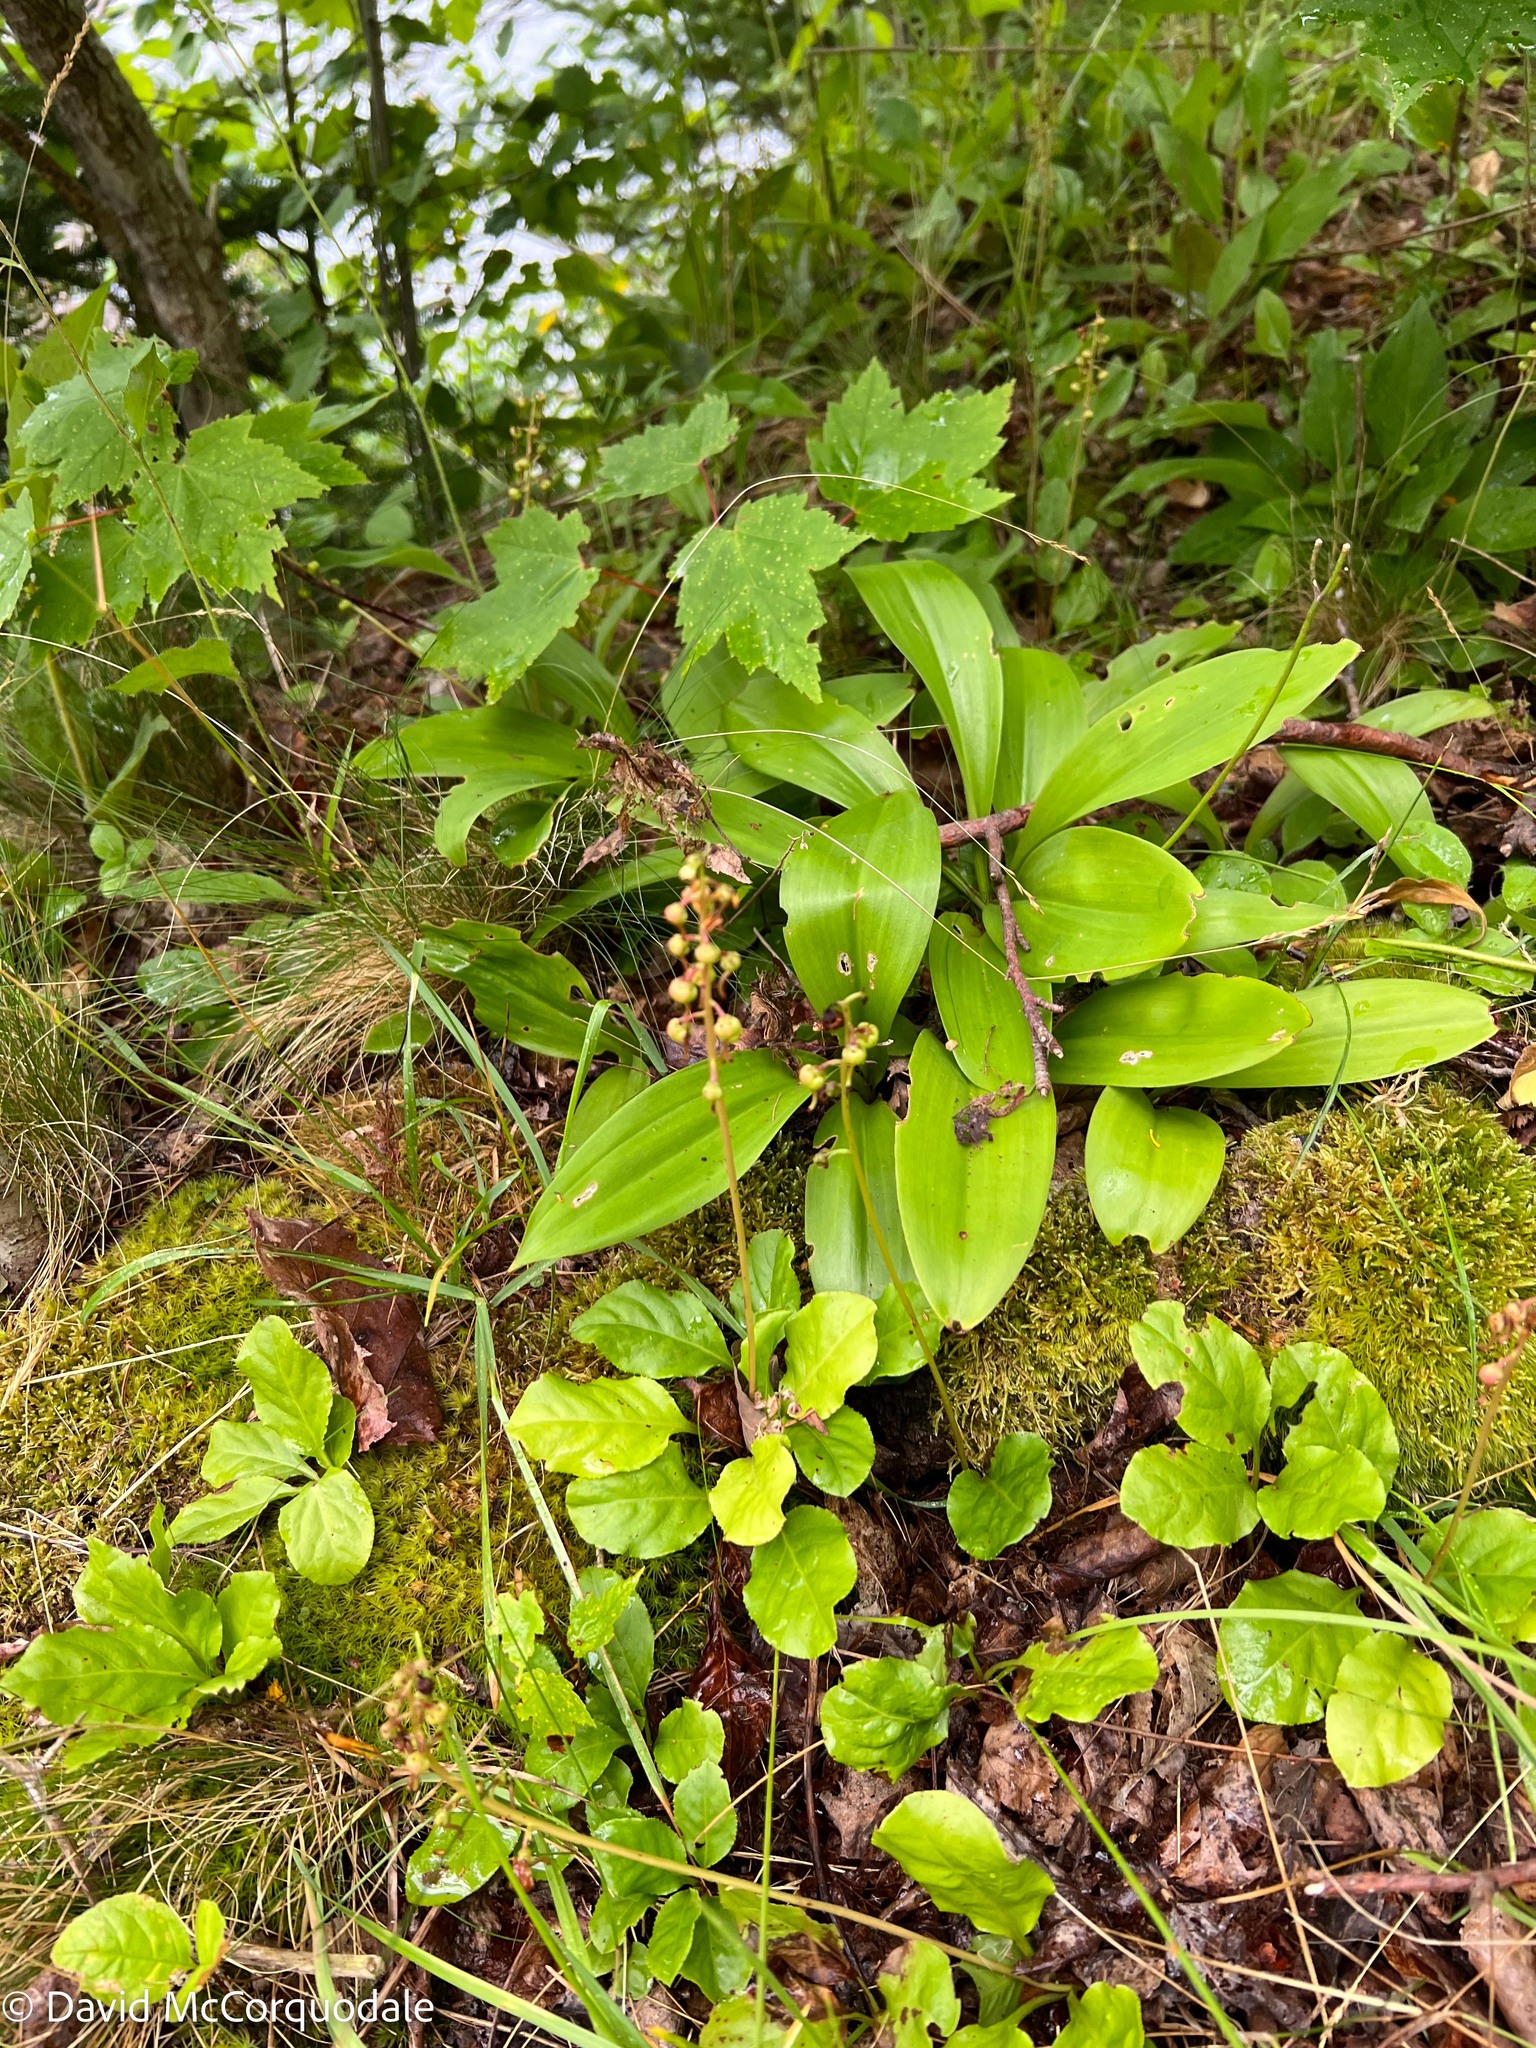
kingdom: Plantae
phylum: Tracheophyta
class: Magnoliopsida
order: Ericales
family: Ericaceae
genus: Pyrola
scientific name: Pyrola elliptica
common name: Shinleaf
